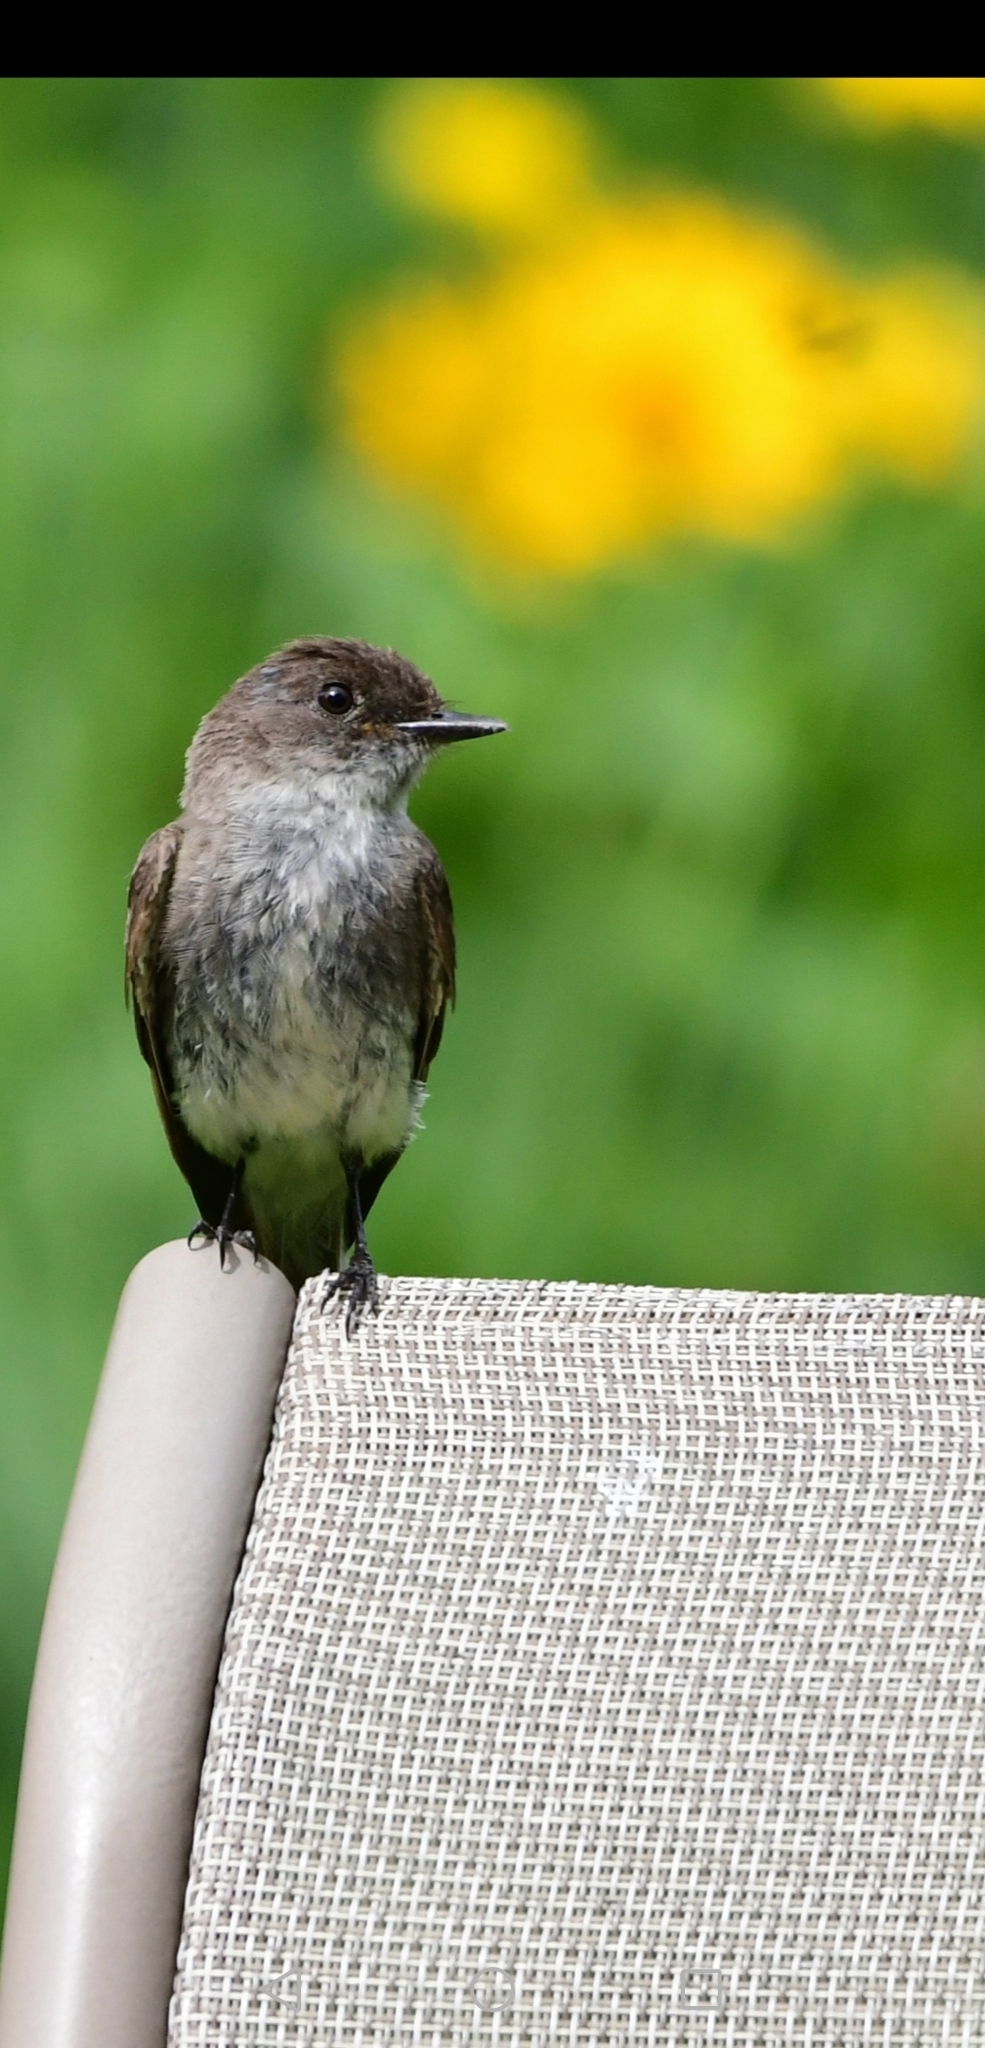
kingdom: Animalia
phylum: Chordata
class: Aves
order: Passeriformes
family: Tyrannidae
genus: Sayornis
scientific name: Sayornis phoebe
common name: Eastern phoebe
